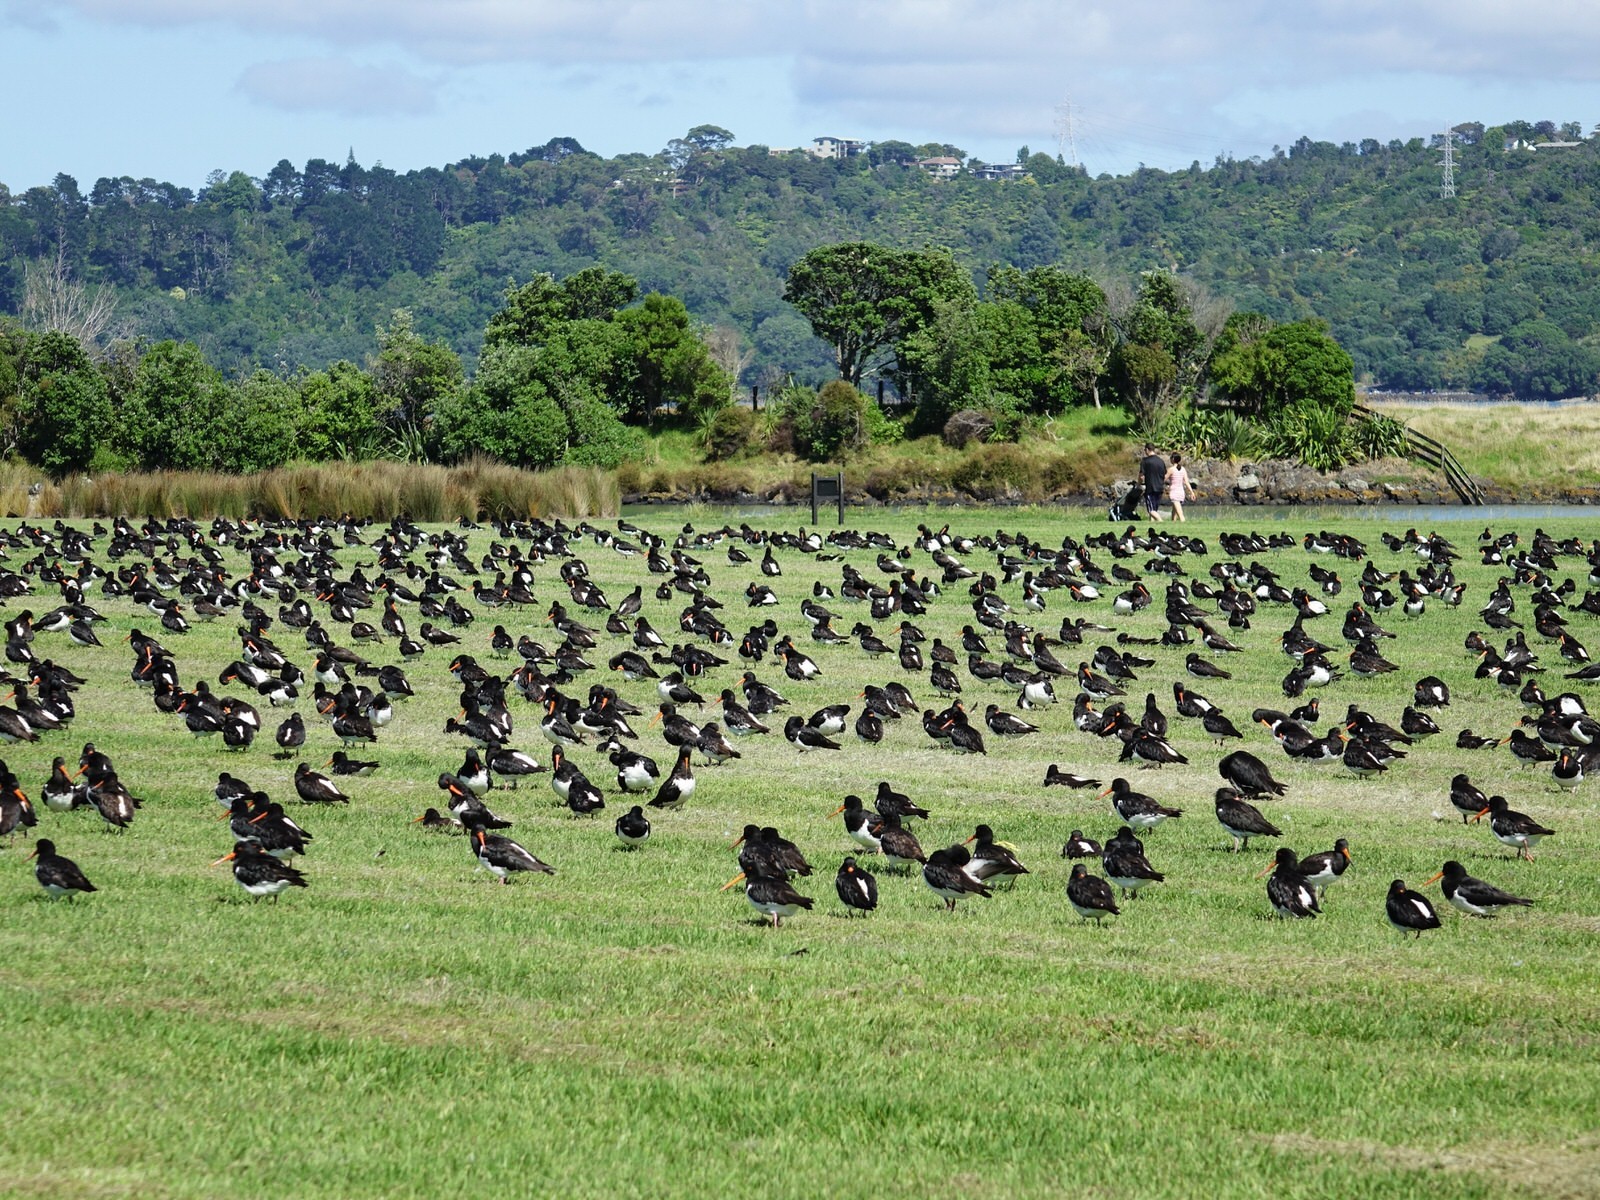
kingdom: Animalia
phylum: Chordata
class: Aves
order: Charadriiformes
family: Haematopodidae
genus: Haematopus
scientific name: Haematopus finschi
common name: South island oystercatcher
